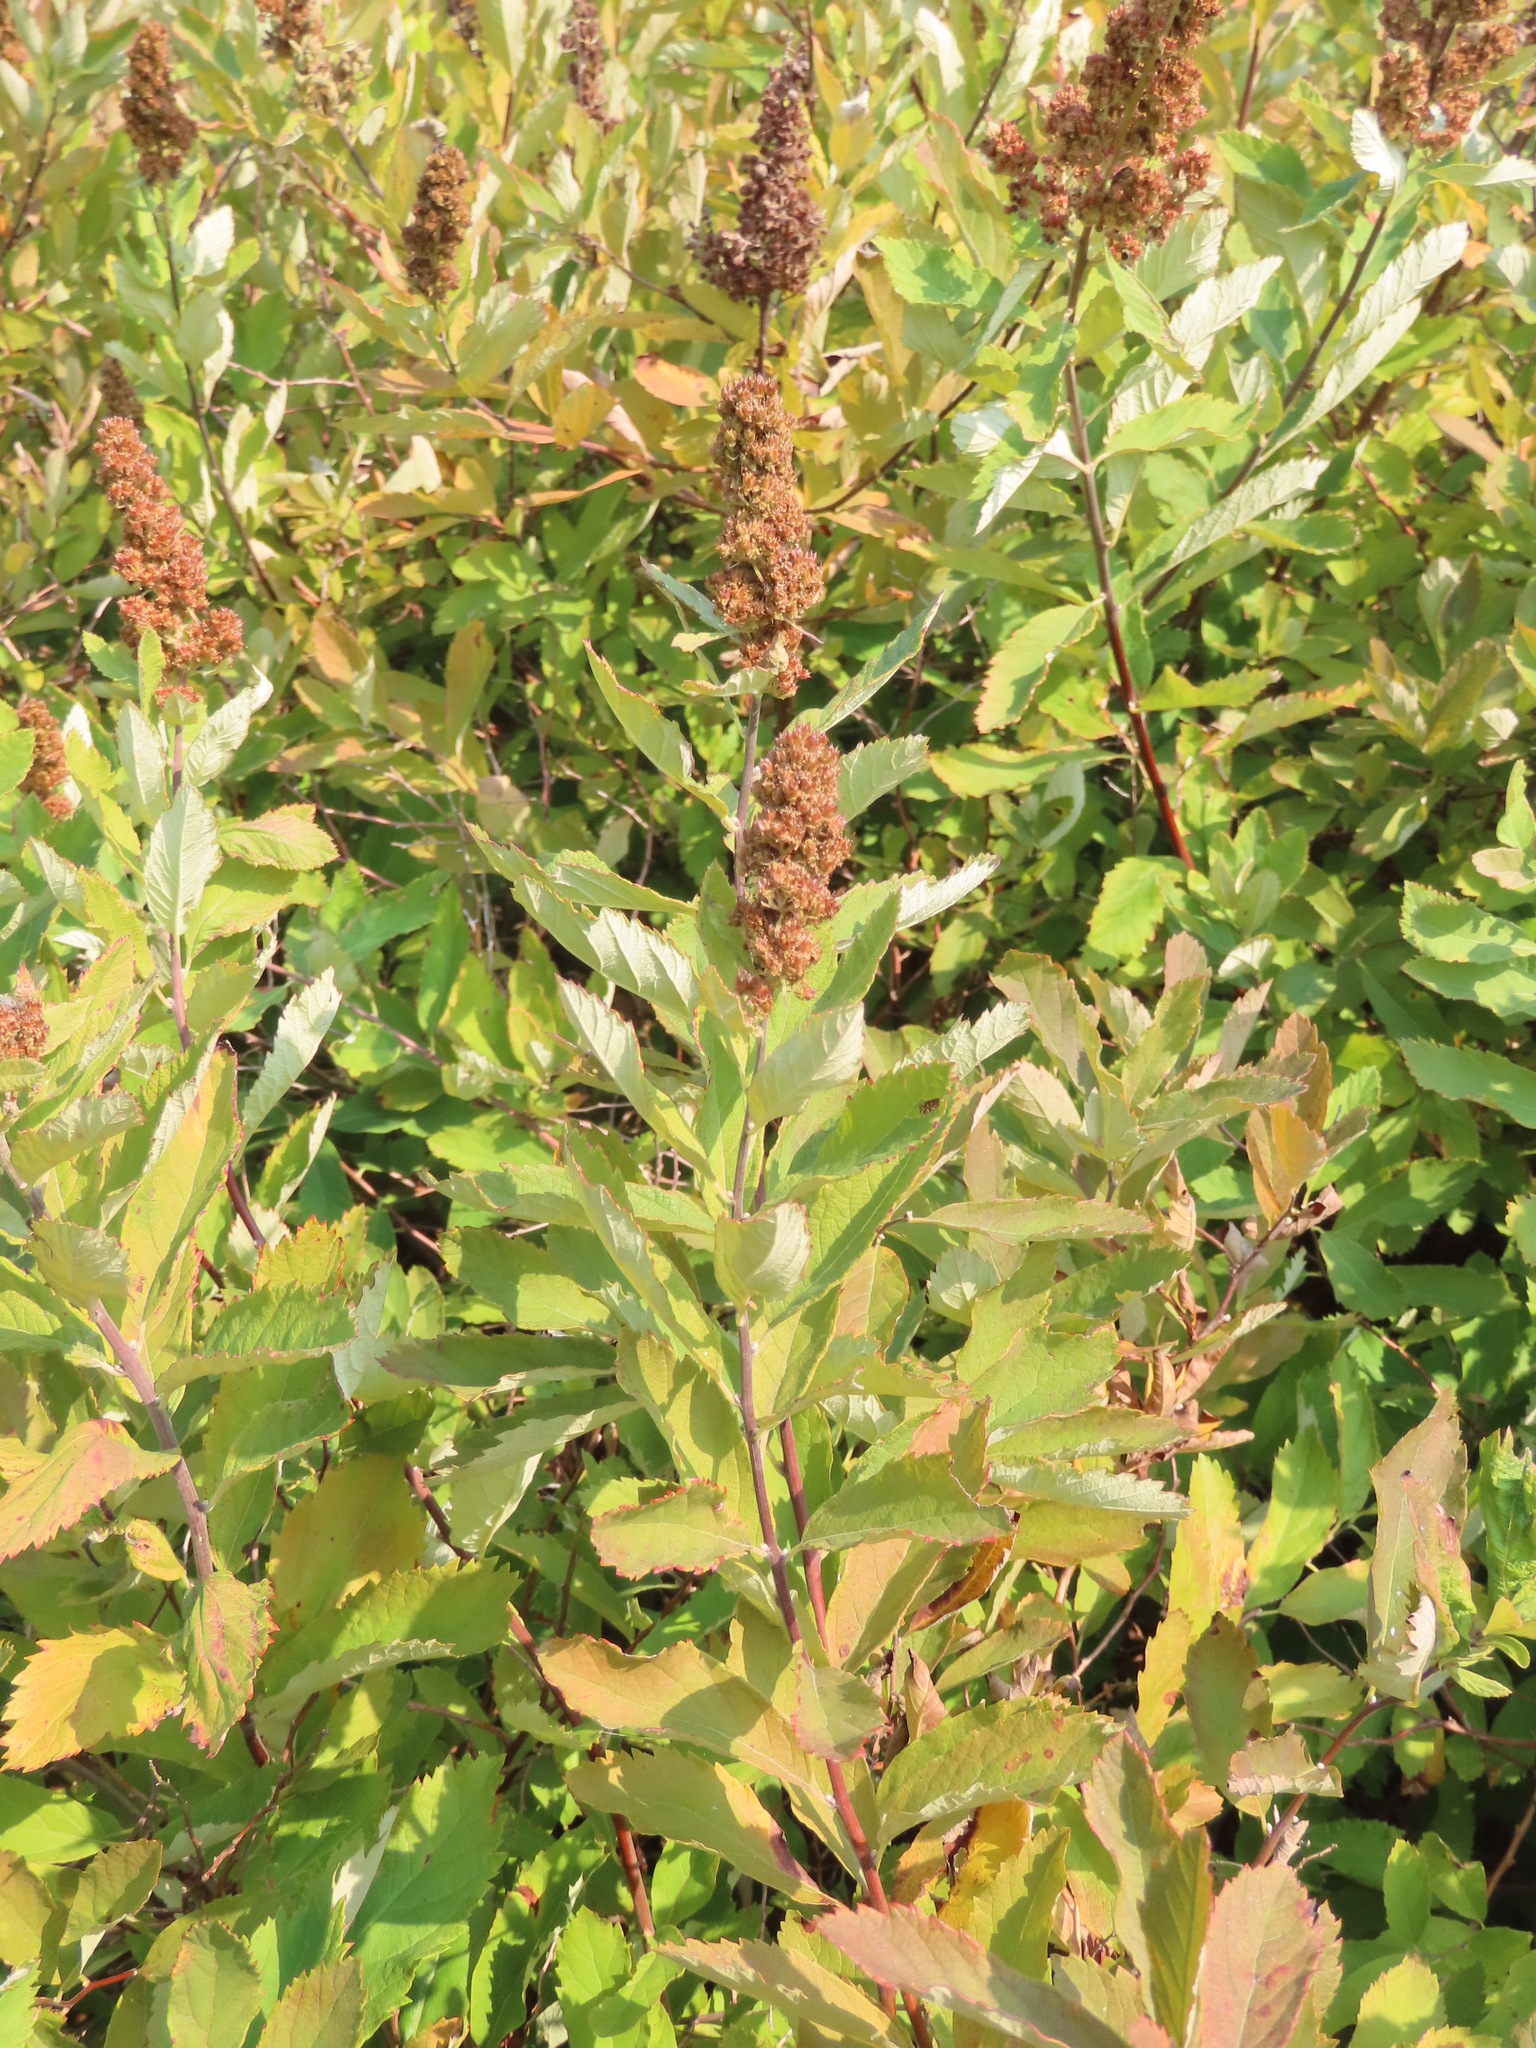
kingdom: Plantae
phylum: Tracheophyta
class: Magnoliopsida
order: Rosales
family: Rosaceae
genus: Spiraea
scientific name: Spiraea douglasii
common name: Steeplebush
